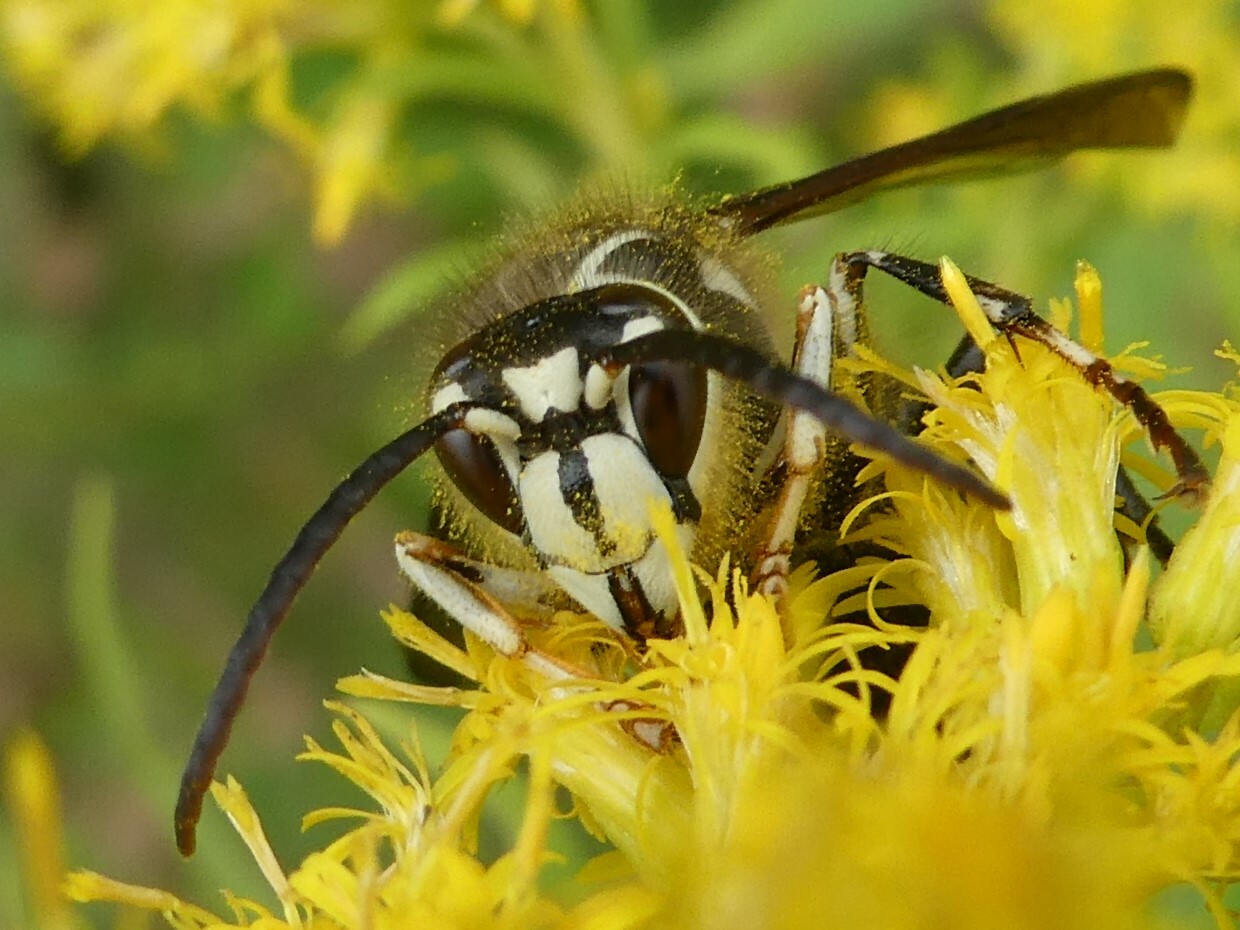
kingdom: Animalia
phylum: Arthropoda
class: Insecta
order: Hymenoptera
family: Vespidae
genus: Dolichovespula
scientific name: Dolichovespula maculata
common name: Bald-faced hornet
